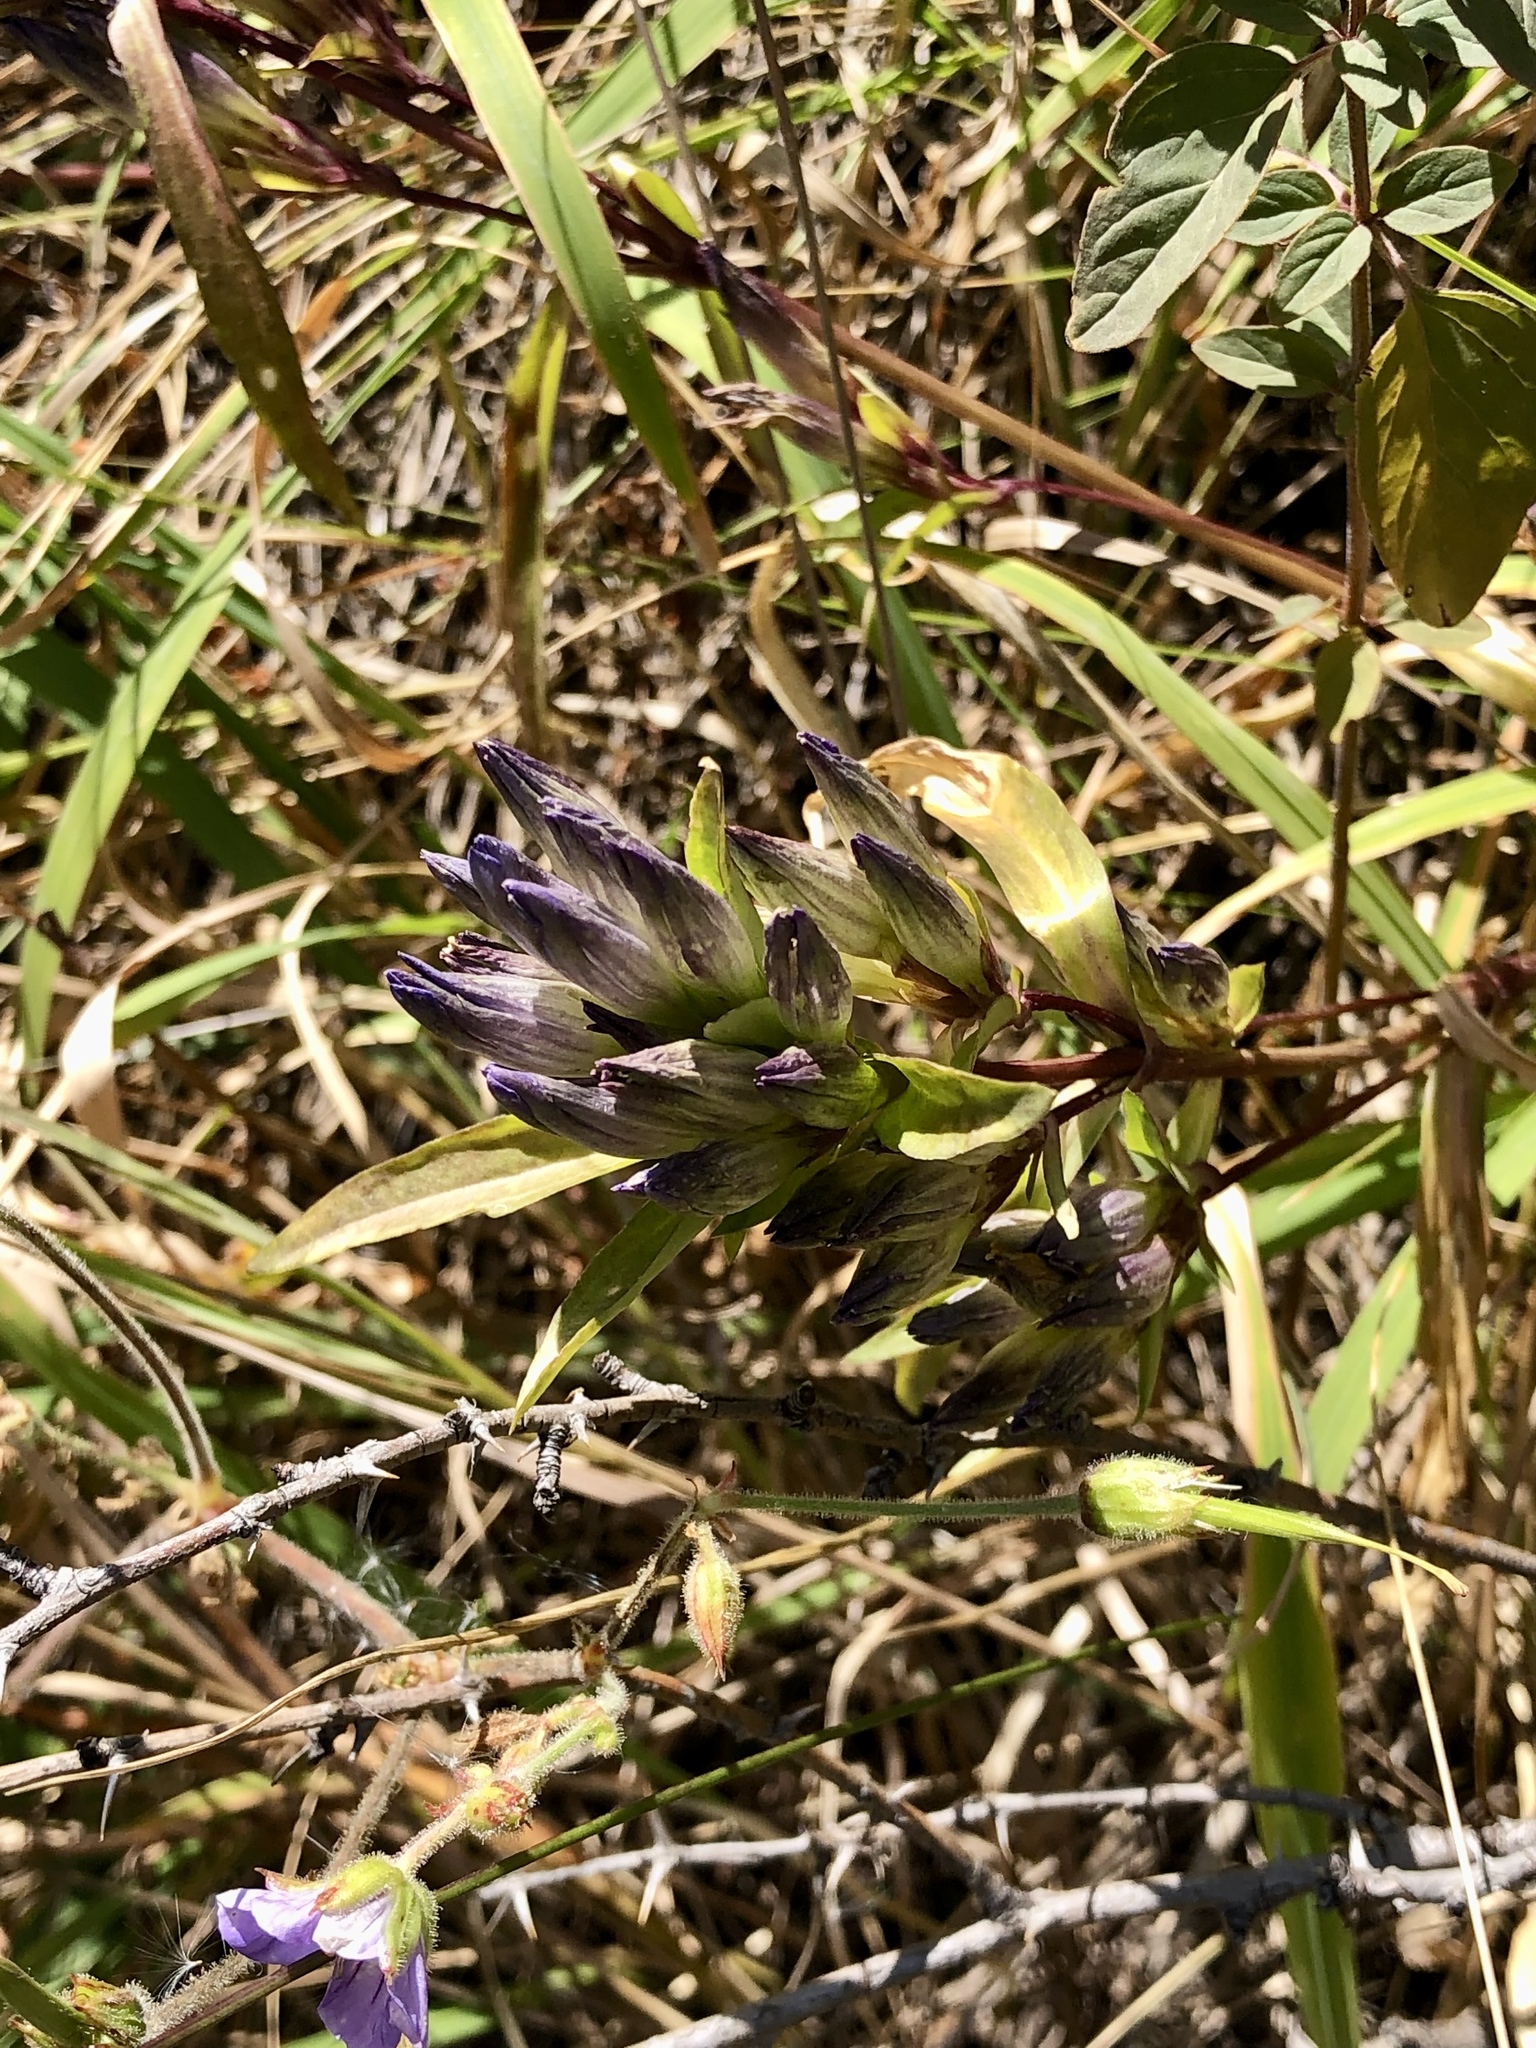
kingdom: Plantae
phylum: Tracheophyta
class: Magnoliopsida
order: Gentianales
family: Gentianaceae
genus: Gentiana
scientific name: Gentiana tianschanica
